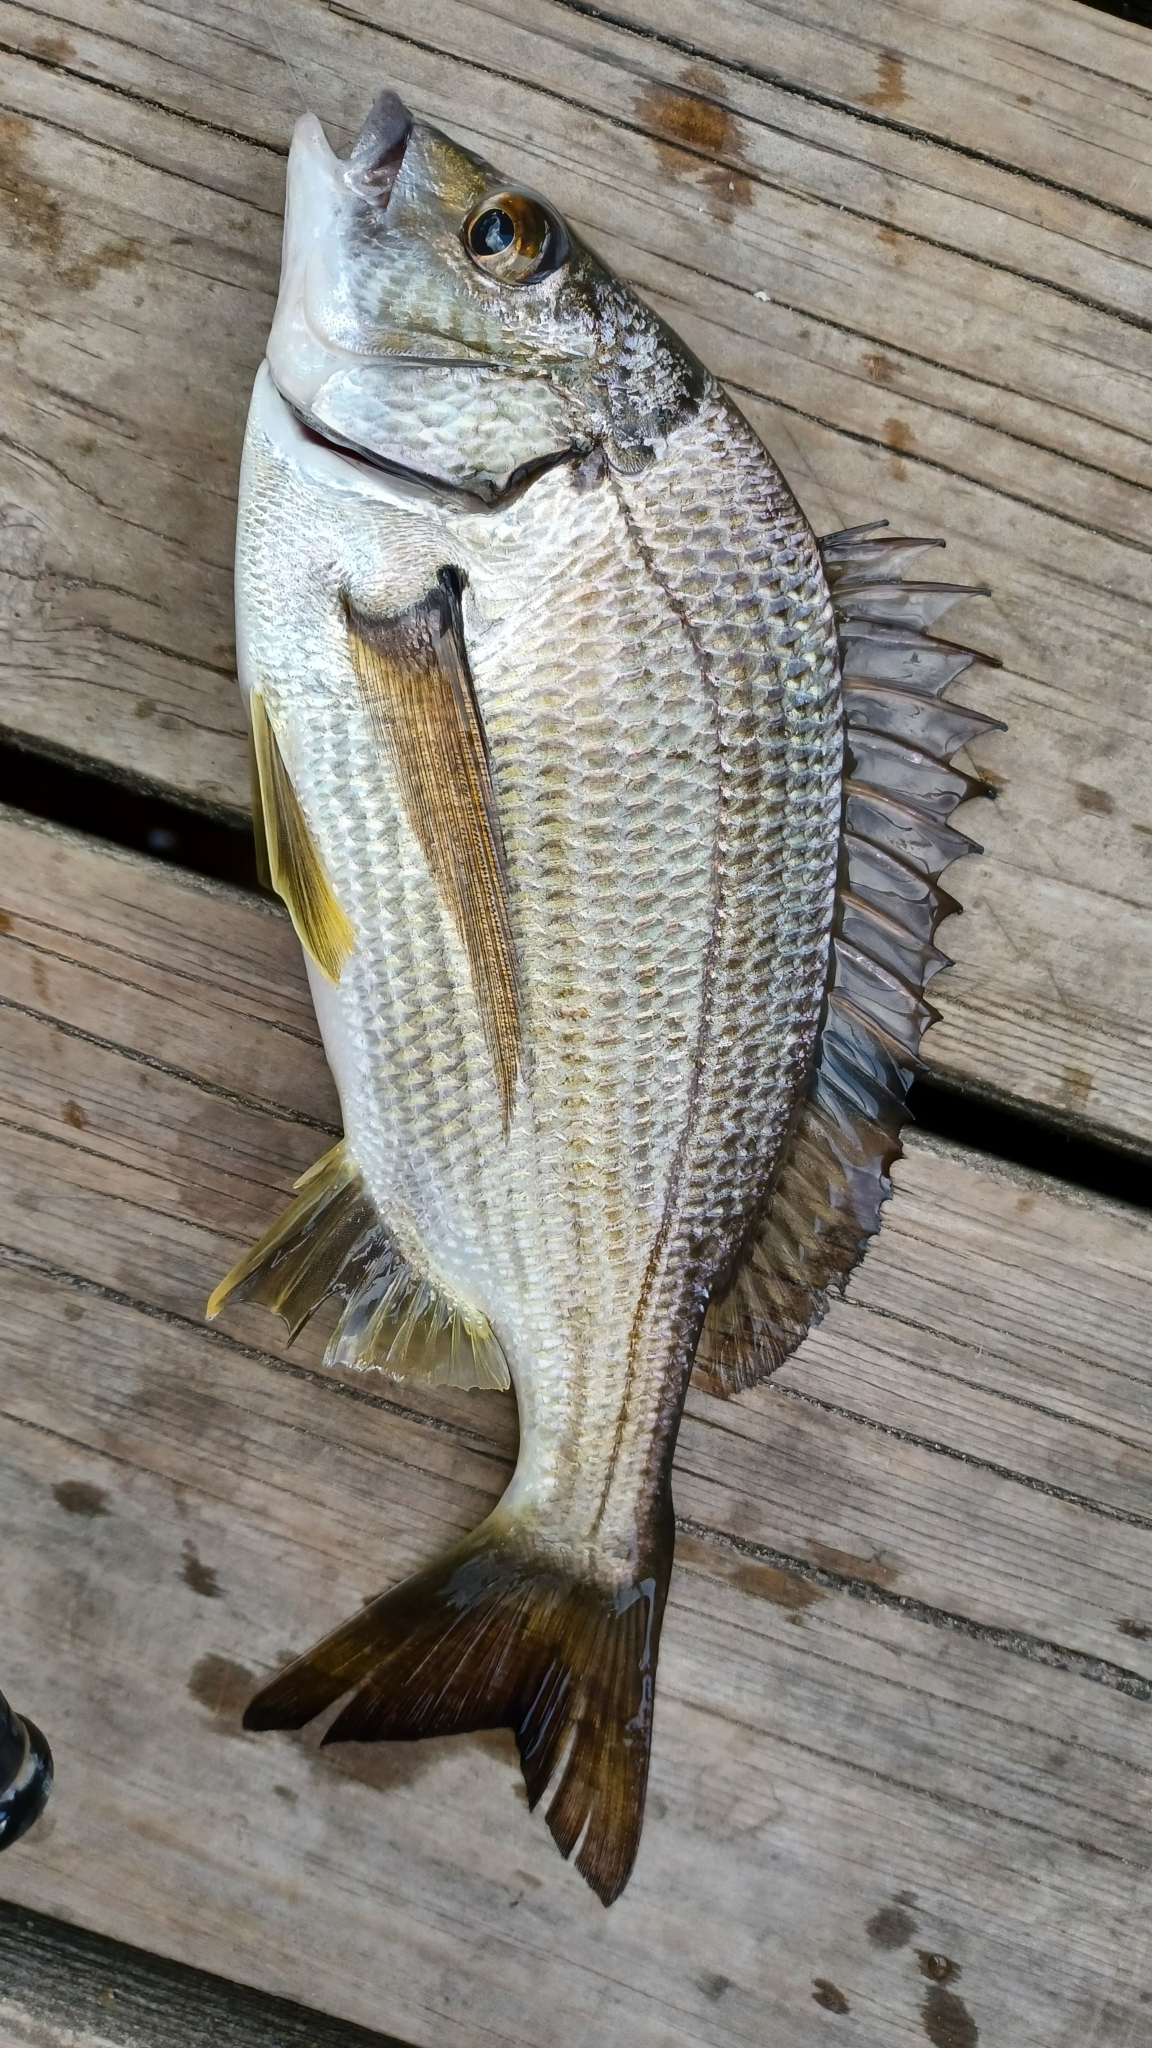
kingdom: Animalia
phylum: Chordata
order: Perciformes
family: Sparidae
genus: Acanthopagrus
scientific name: Acanthopagrus butcheri
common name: Black bream
